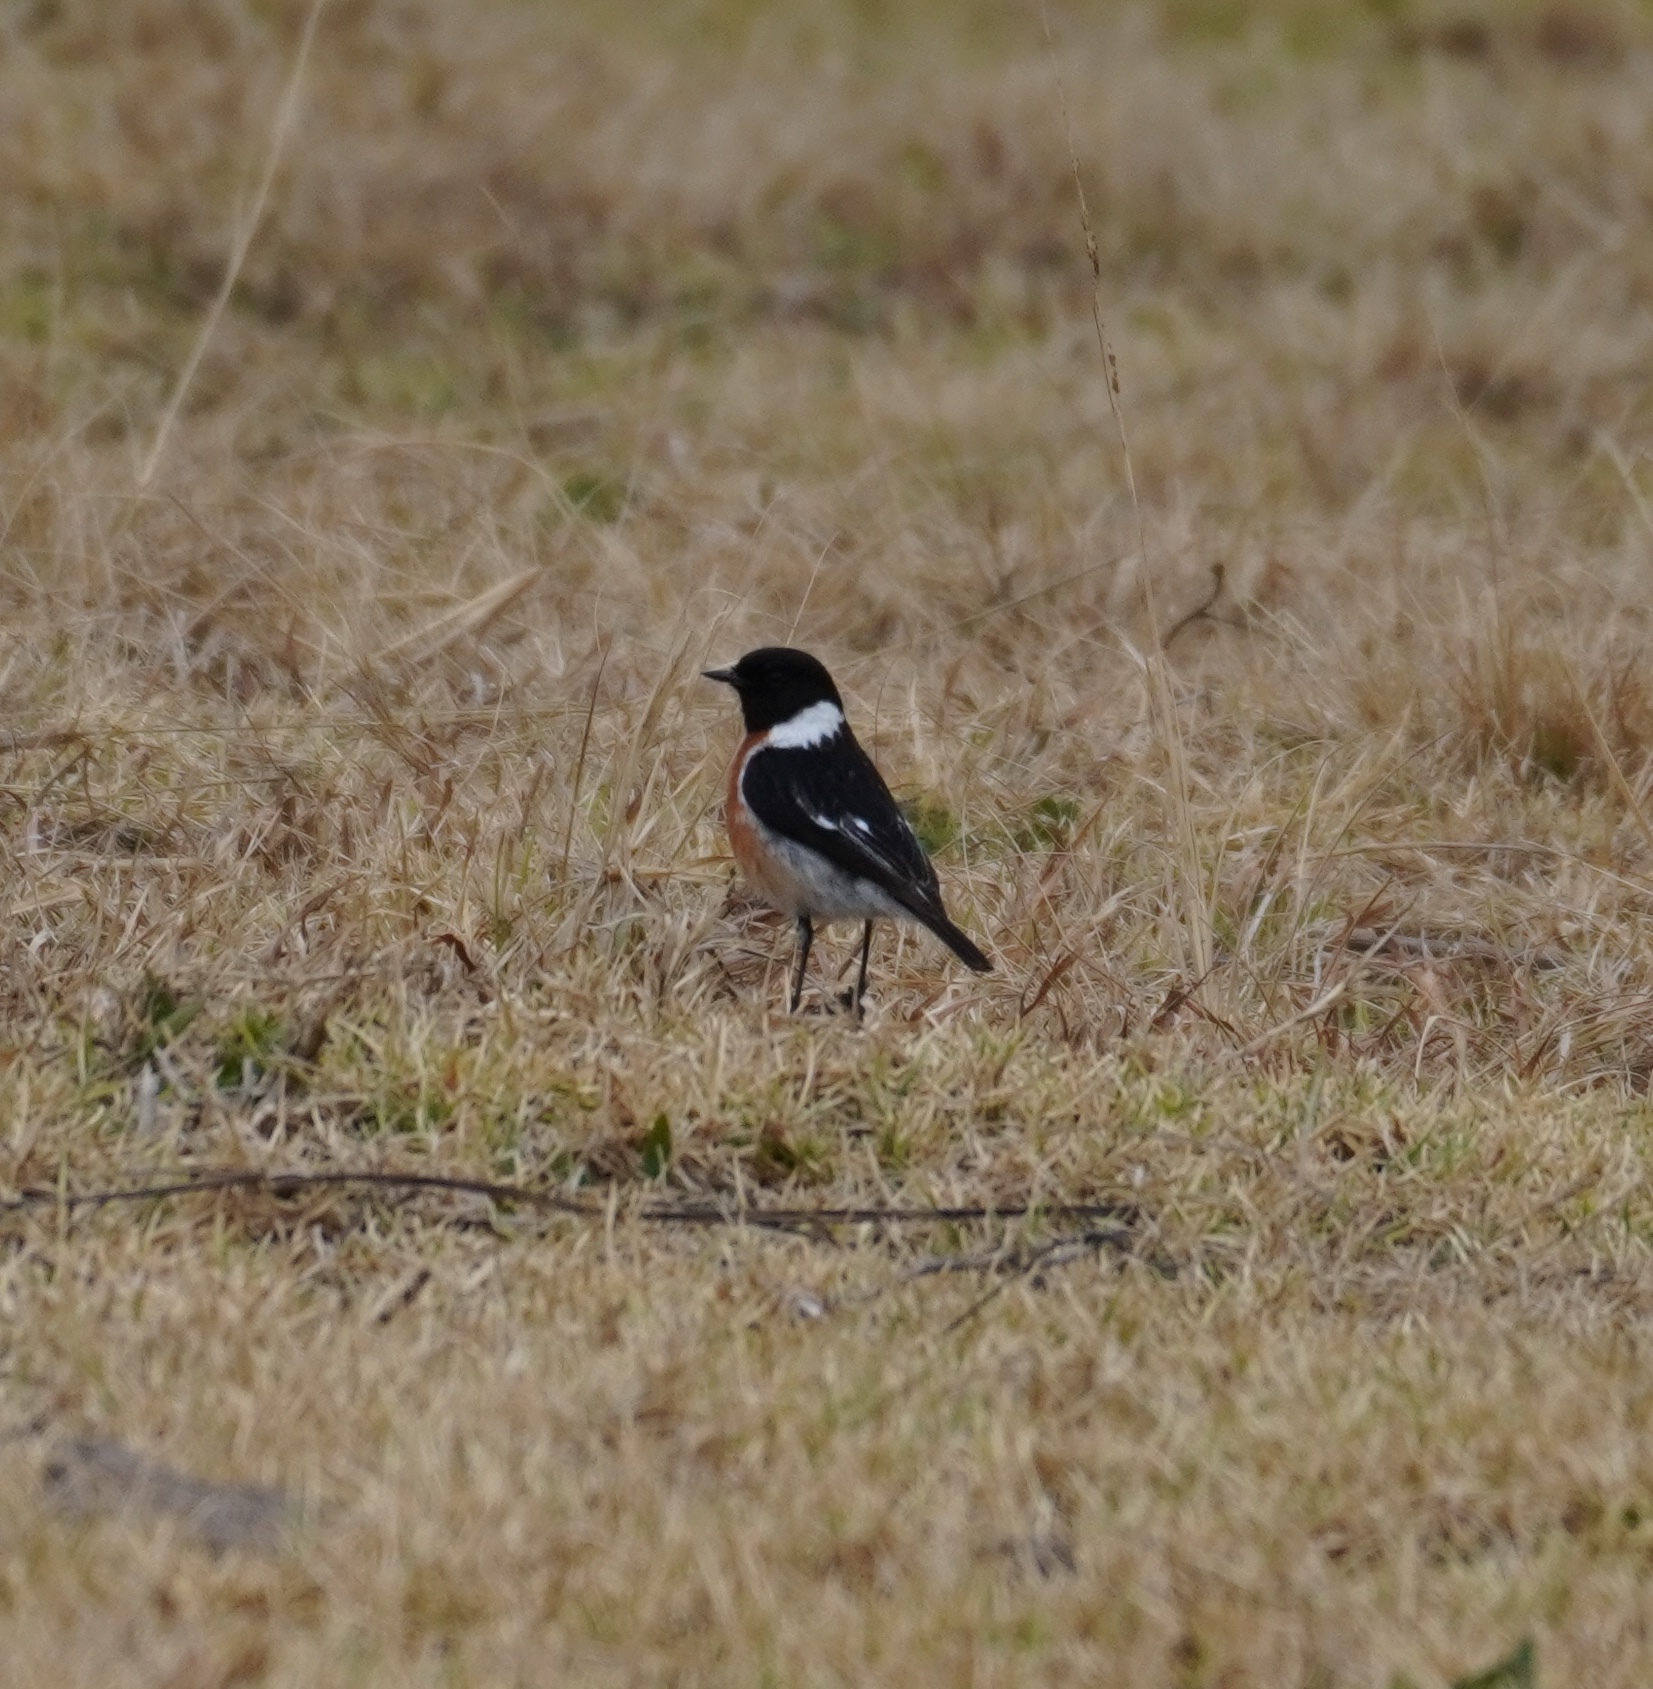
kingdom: Animalia
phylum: Chordata
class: Aves
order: Passeriformes
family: Muscicapidae
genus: Saxicola
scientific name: Saxicola torquatus
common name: African stonechat
